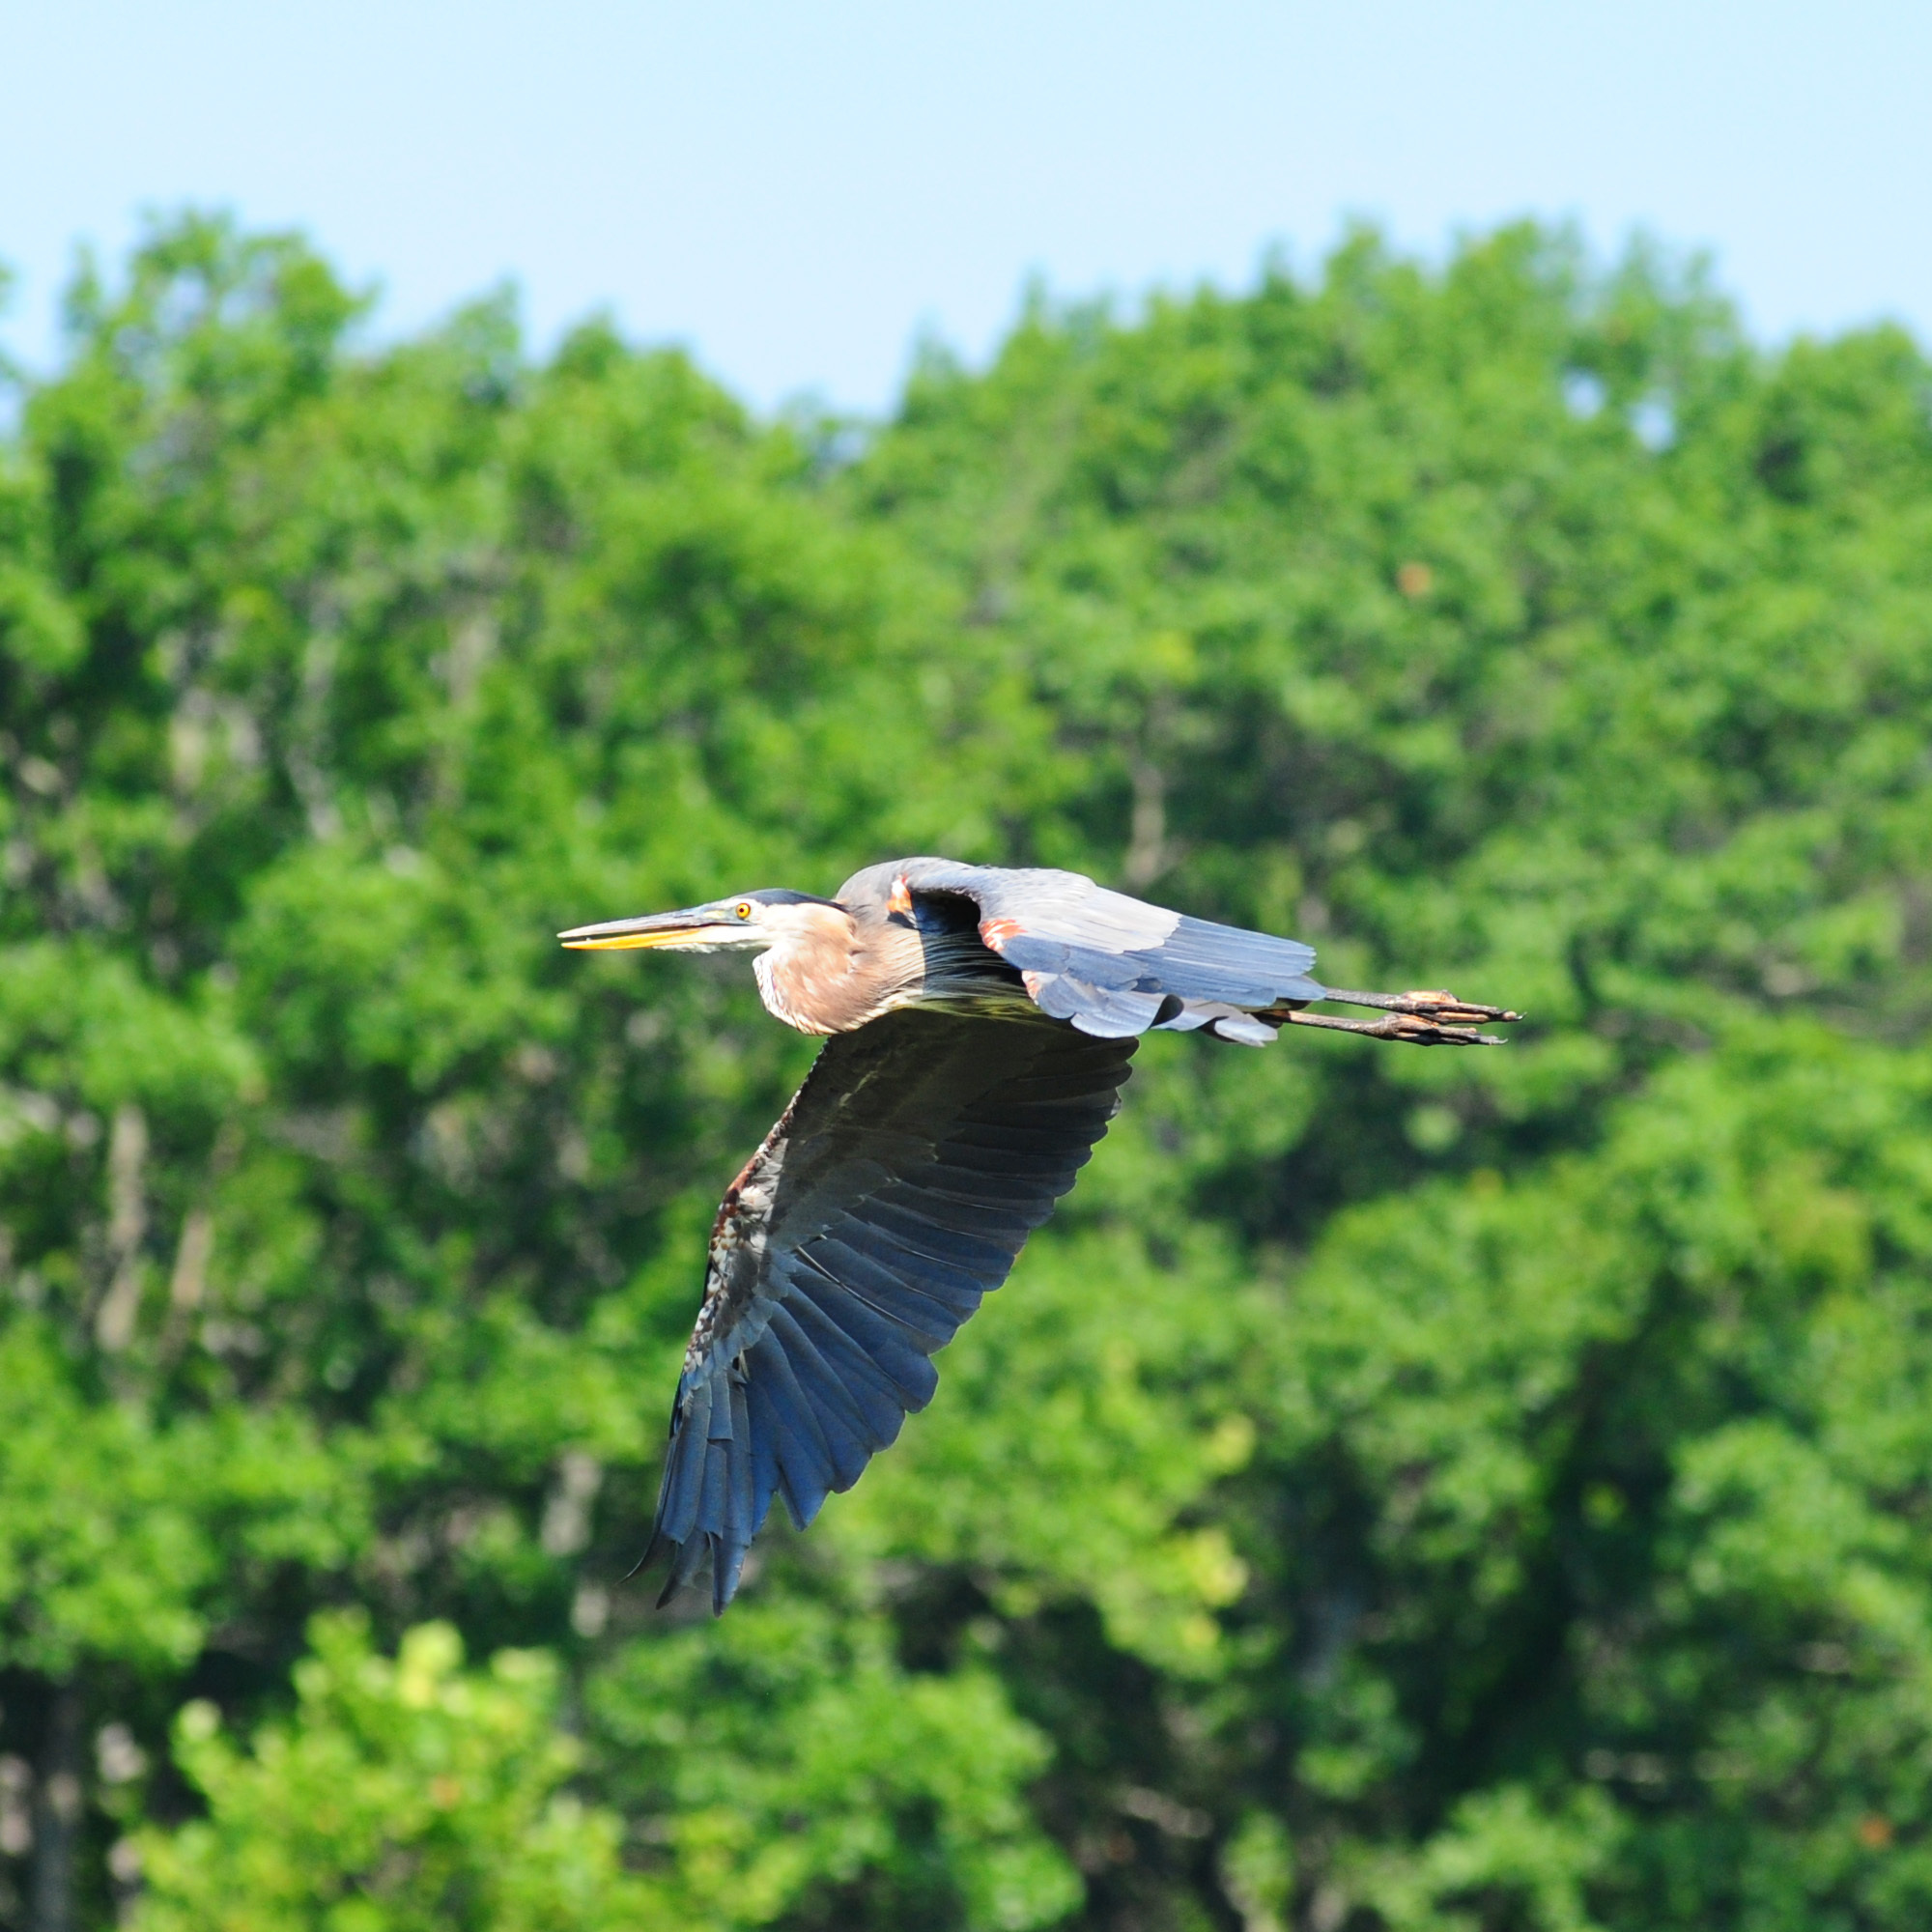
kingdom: Animalia
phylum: Chordata
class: Aves
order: Pelecaniformes
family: Ardeidae
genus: Ardea
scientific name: Ardea herodias
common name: Great blue heron
